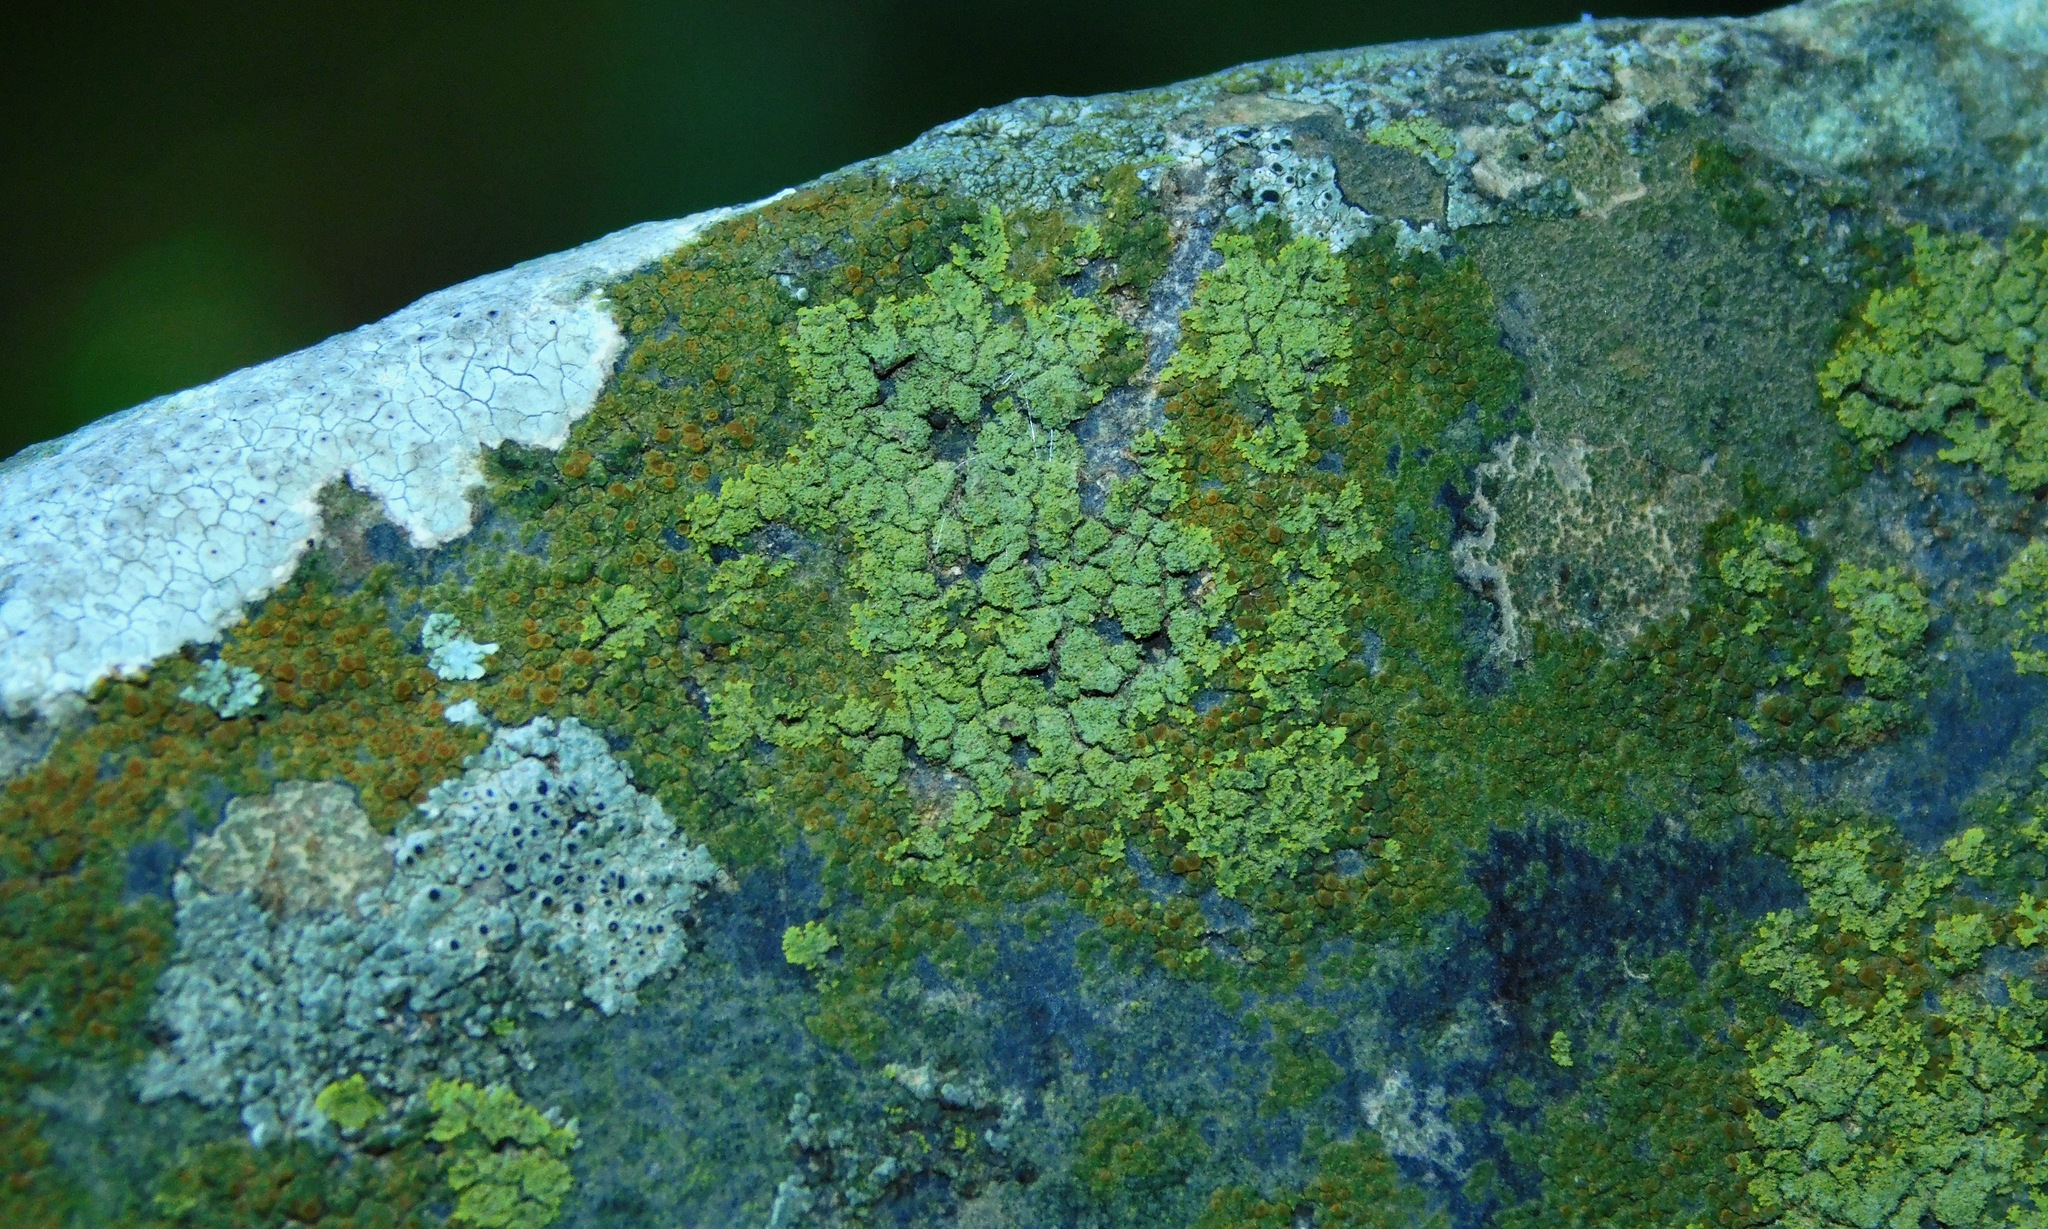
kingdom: Fungi
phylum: Ascomycota
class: Candelariomycetes
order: Candelariales
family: Candelariaceae
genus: Candelaria
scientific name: Candelaria concolor
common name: Candleflame lichen
